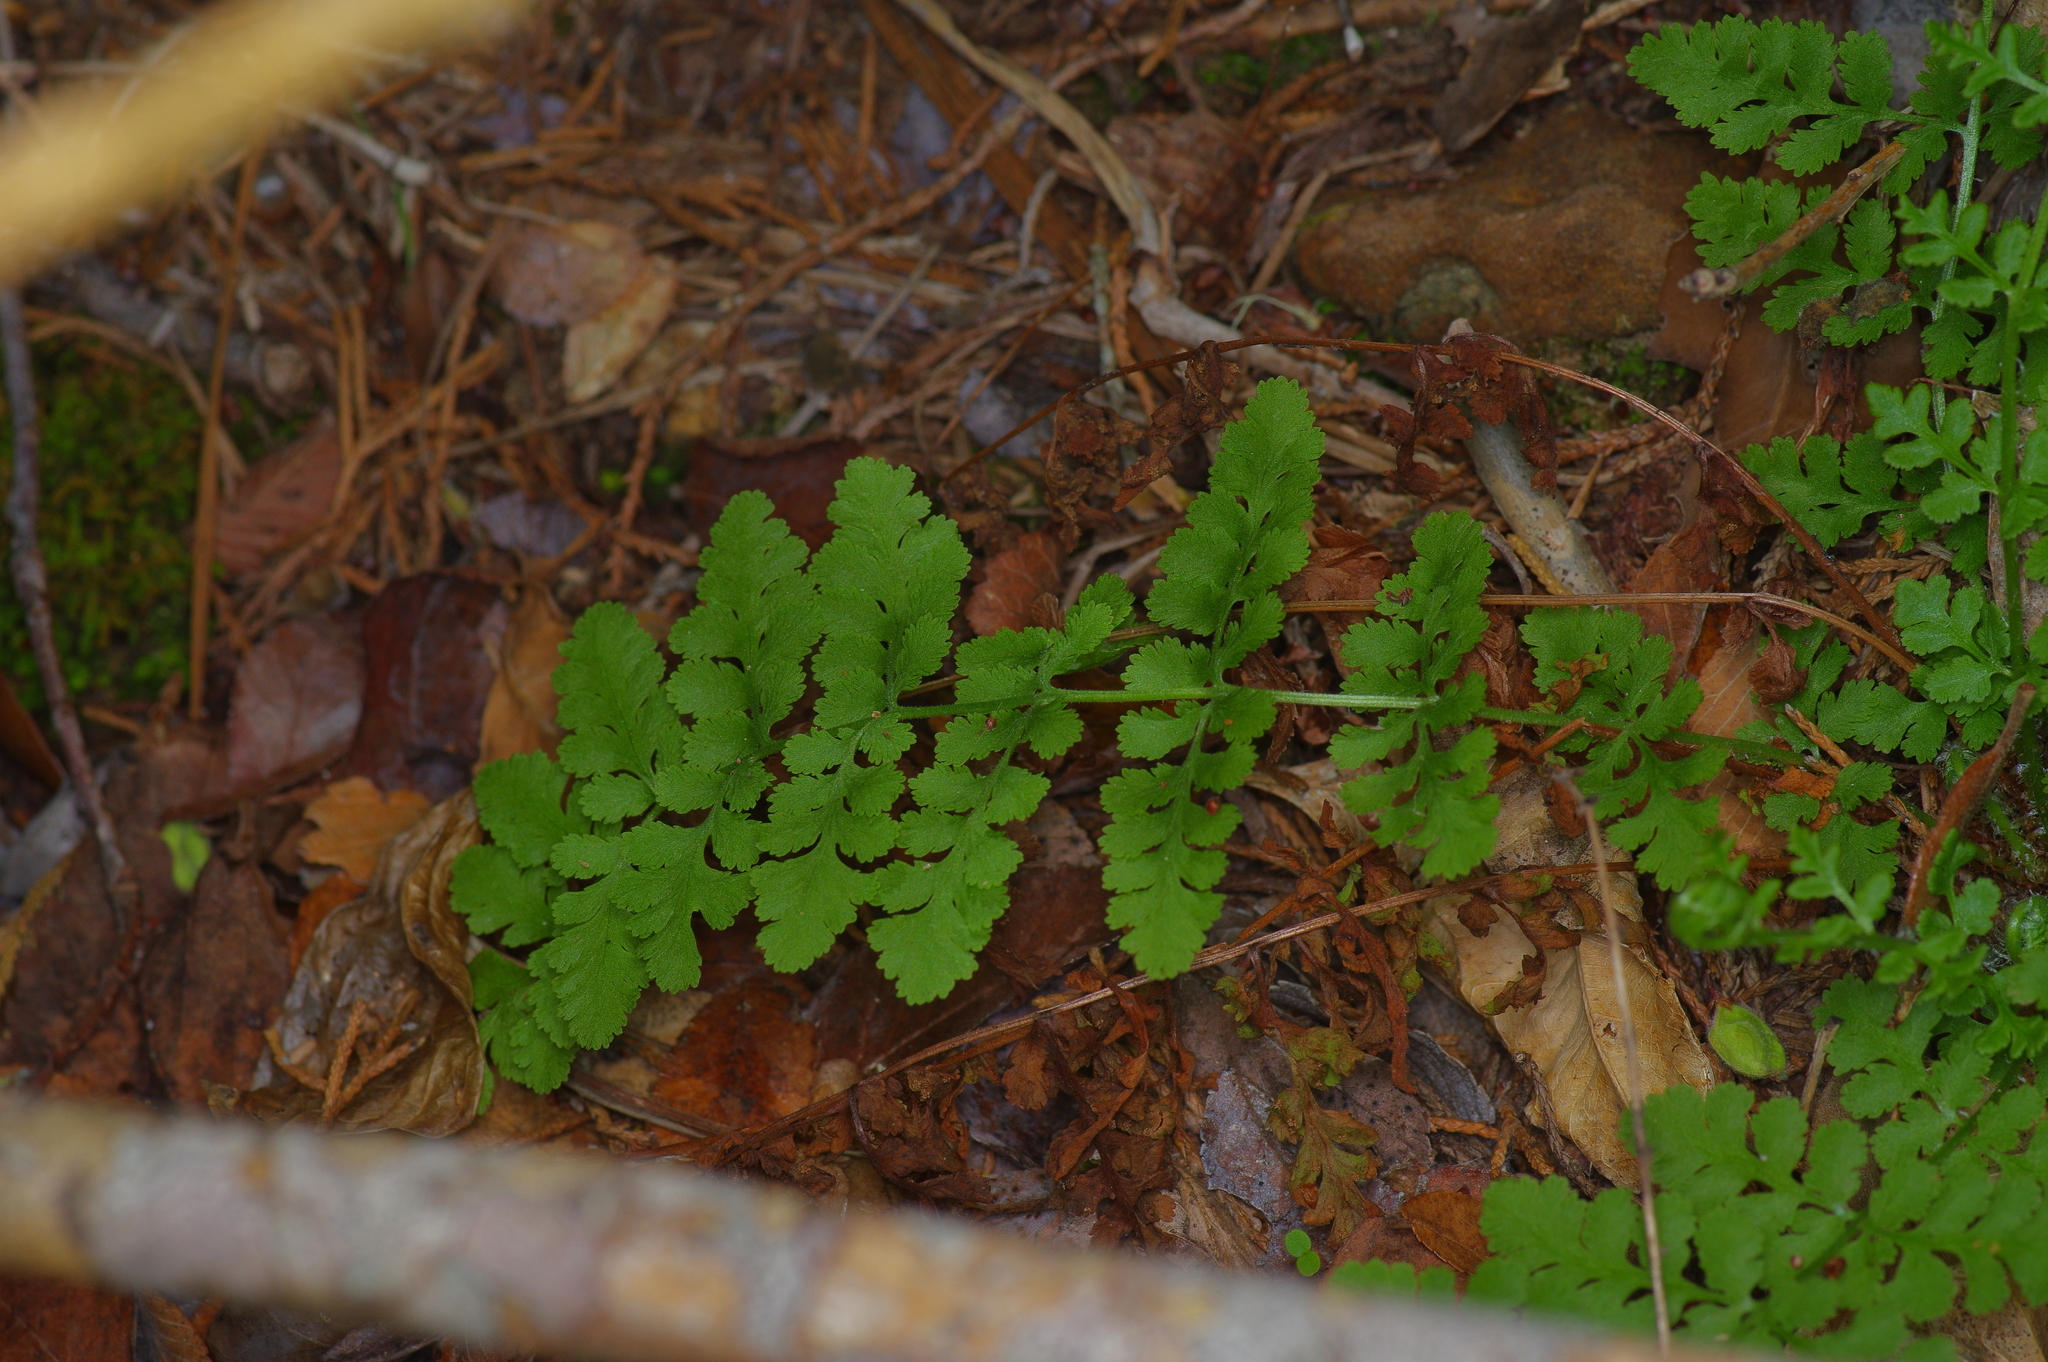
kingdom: Plantae
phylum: Tracheophyta
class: Polypodiopsida
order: Polypodiales
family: Woodsiaceae
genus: Physematium
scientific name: Physematium obtusum
